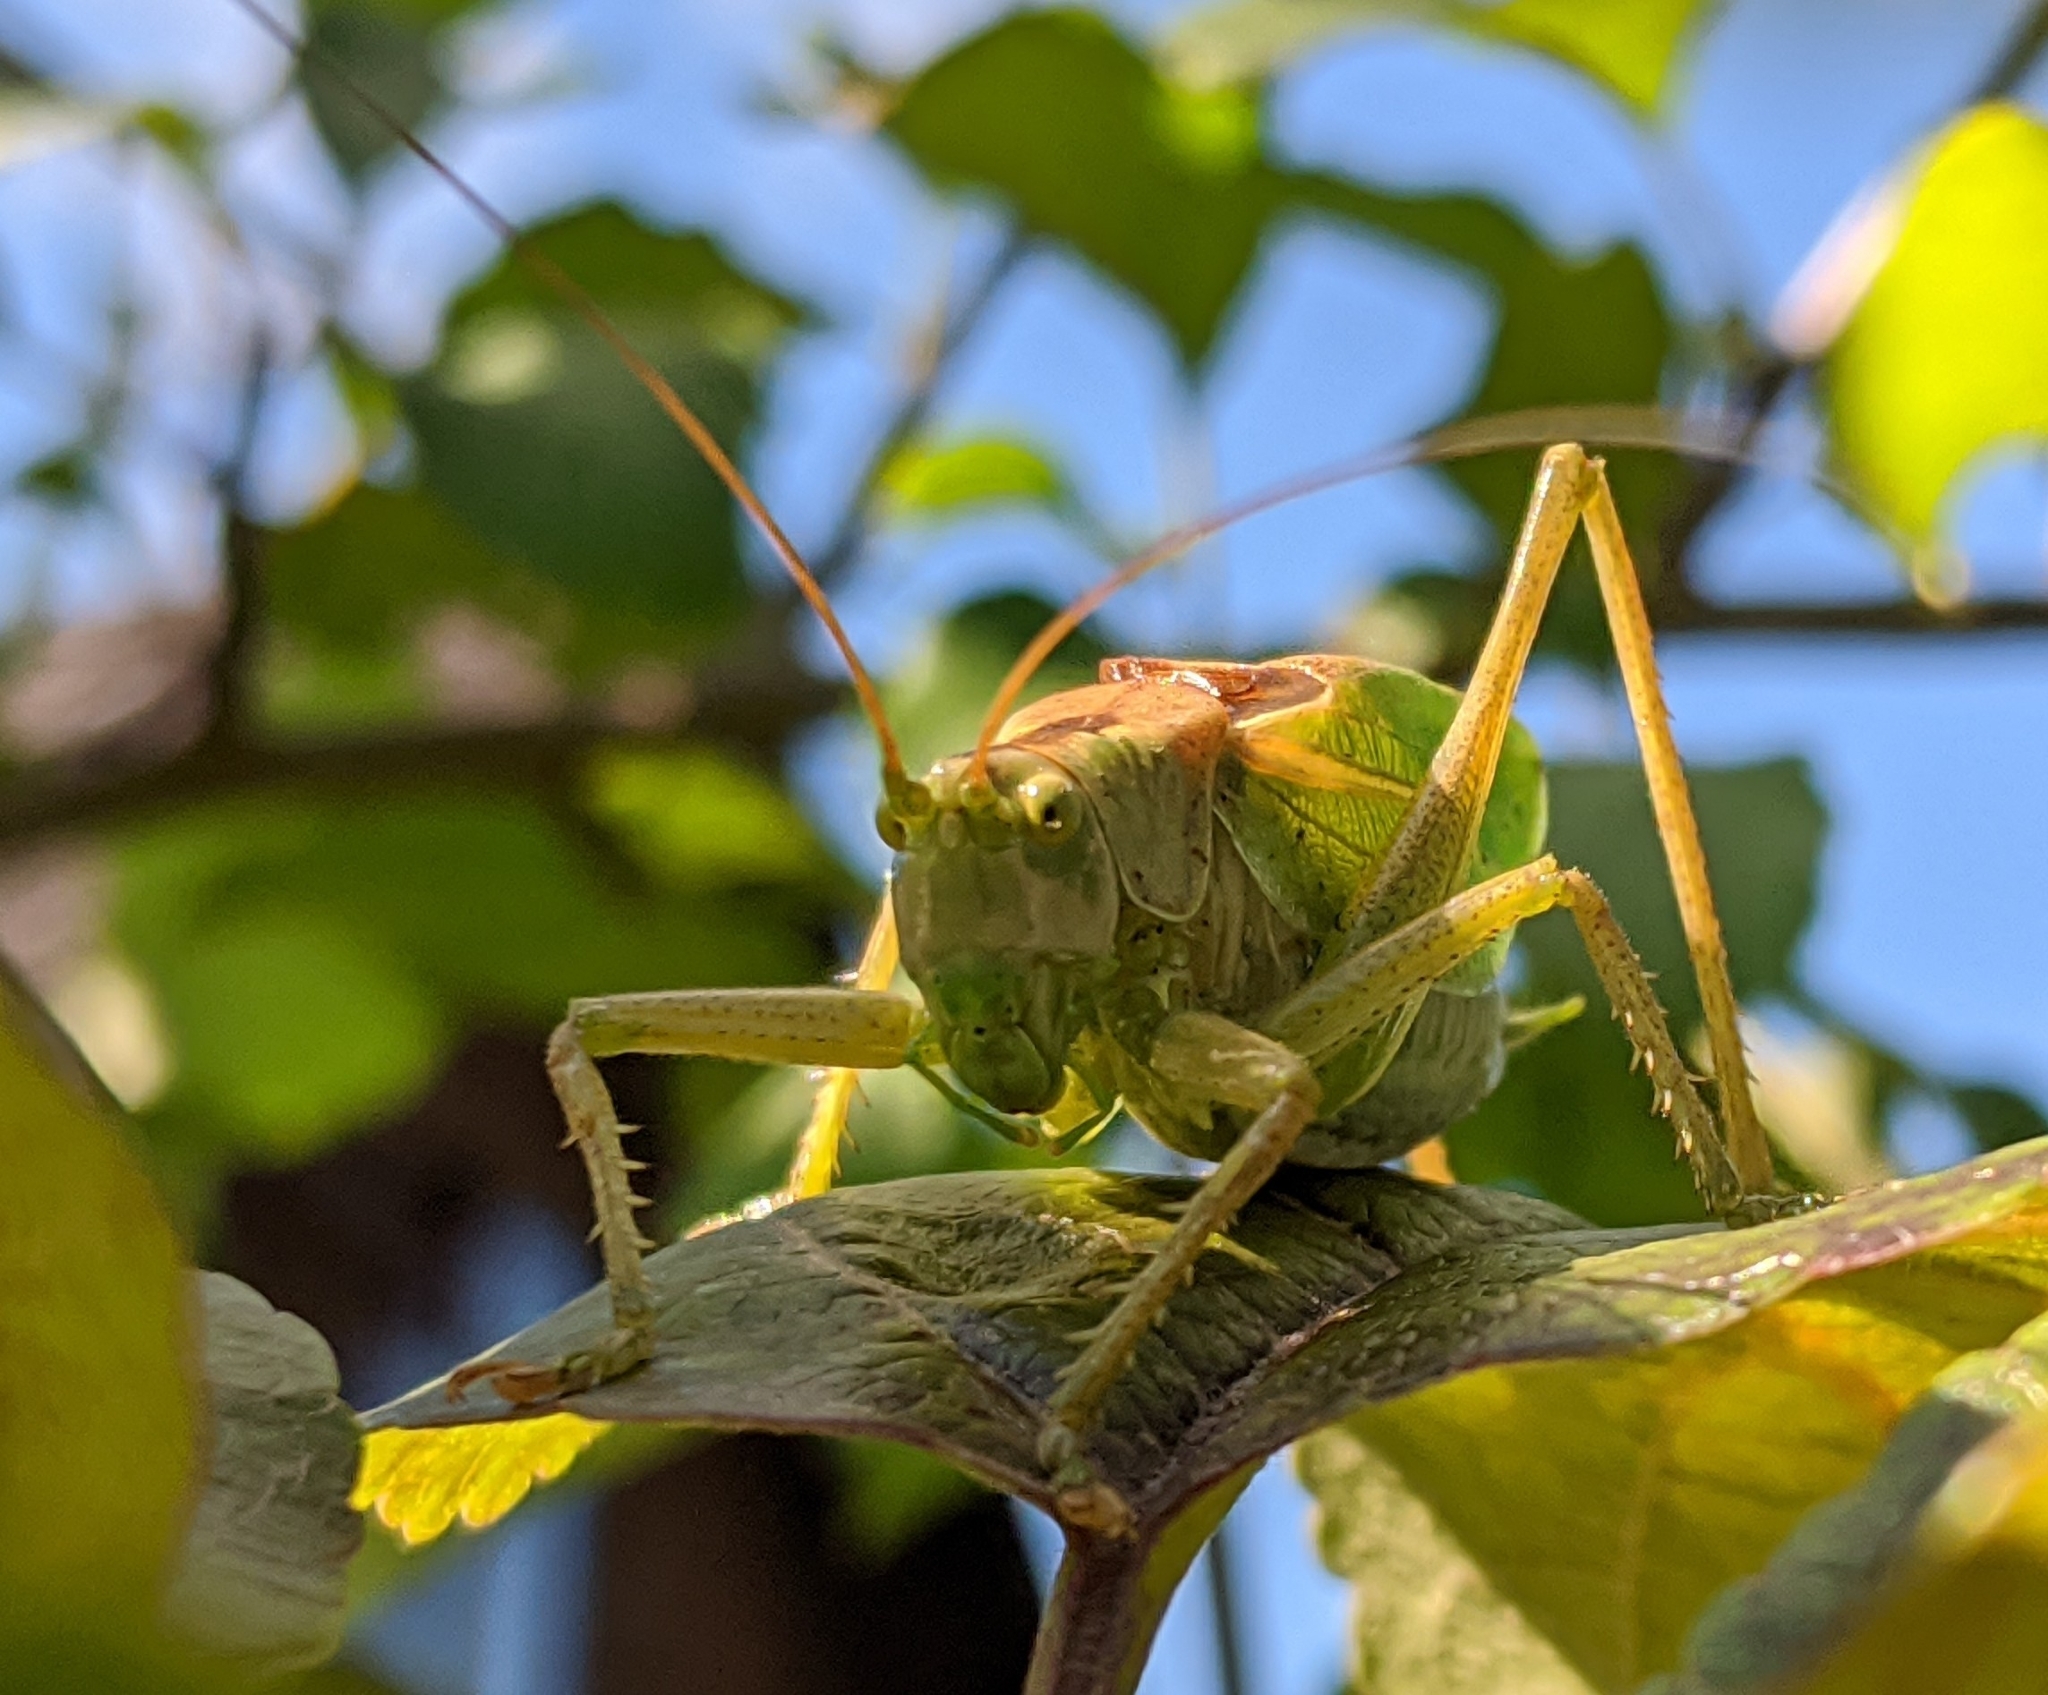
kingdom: Animalia
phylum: Arthropoda
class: Insecta
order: Orthoptera
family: Tettigoniidae
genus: Tettigonia
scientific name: Tettigonia cantans
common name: Upland green bush-cricket
